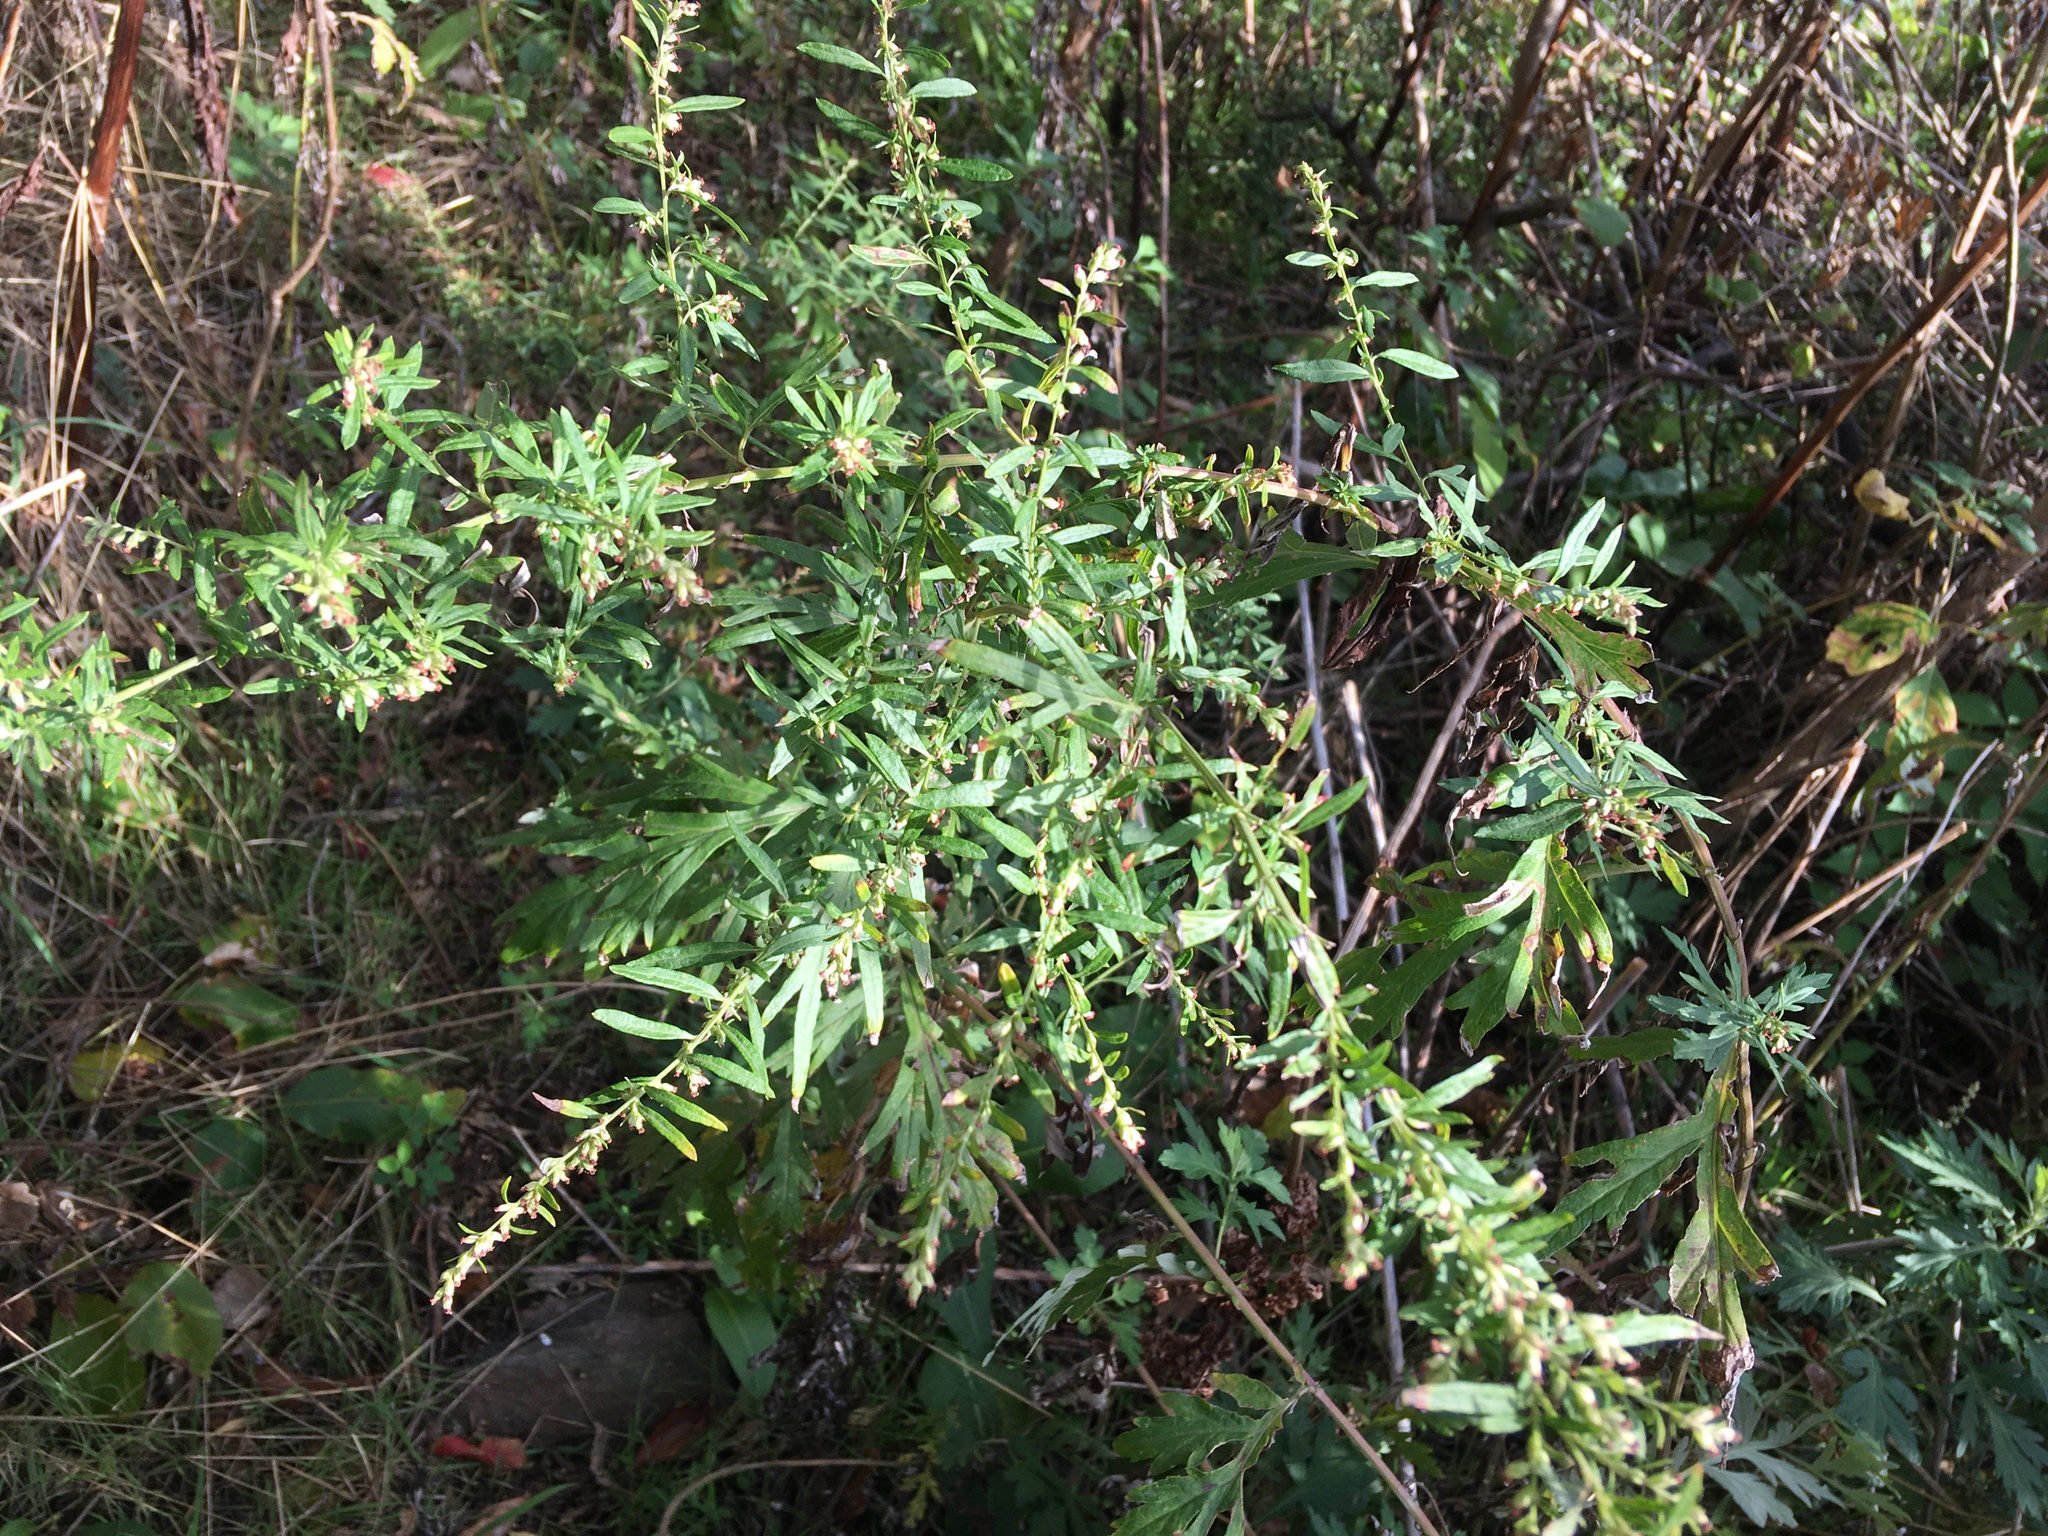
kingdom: Plantae
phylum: Tracheophyta
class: Magnoliopsida
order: Asterales
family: Asteraceae
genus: Artemisia
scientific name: Artemisia vulgaris
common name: Mugwort
